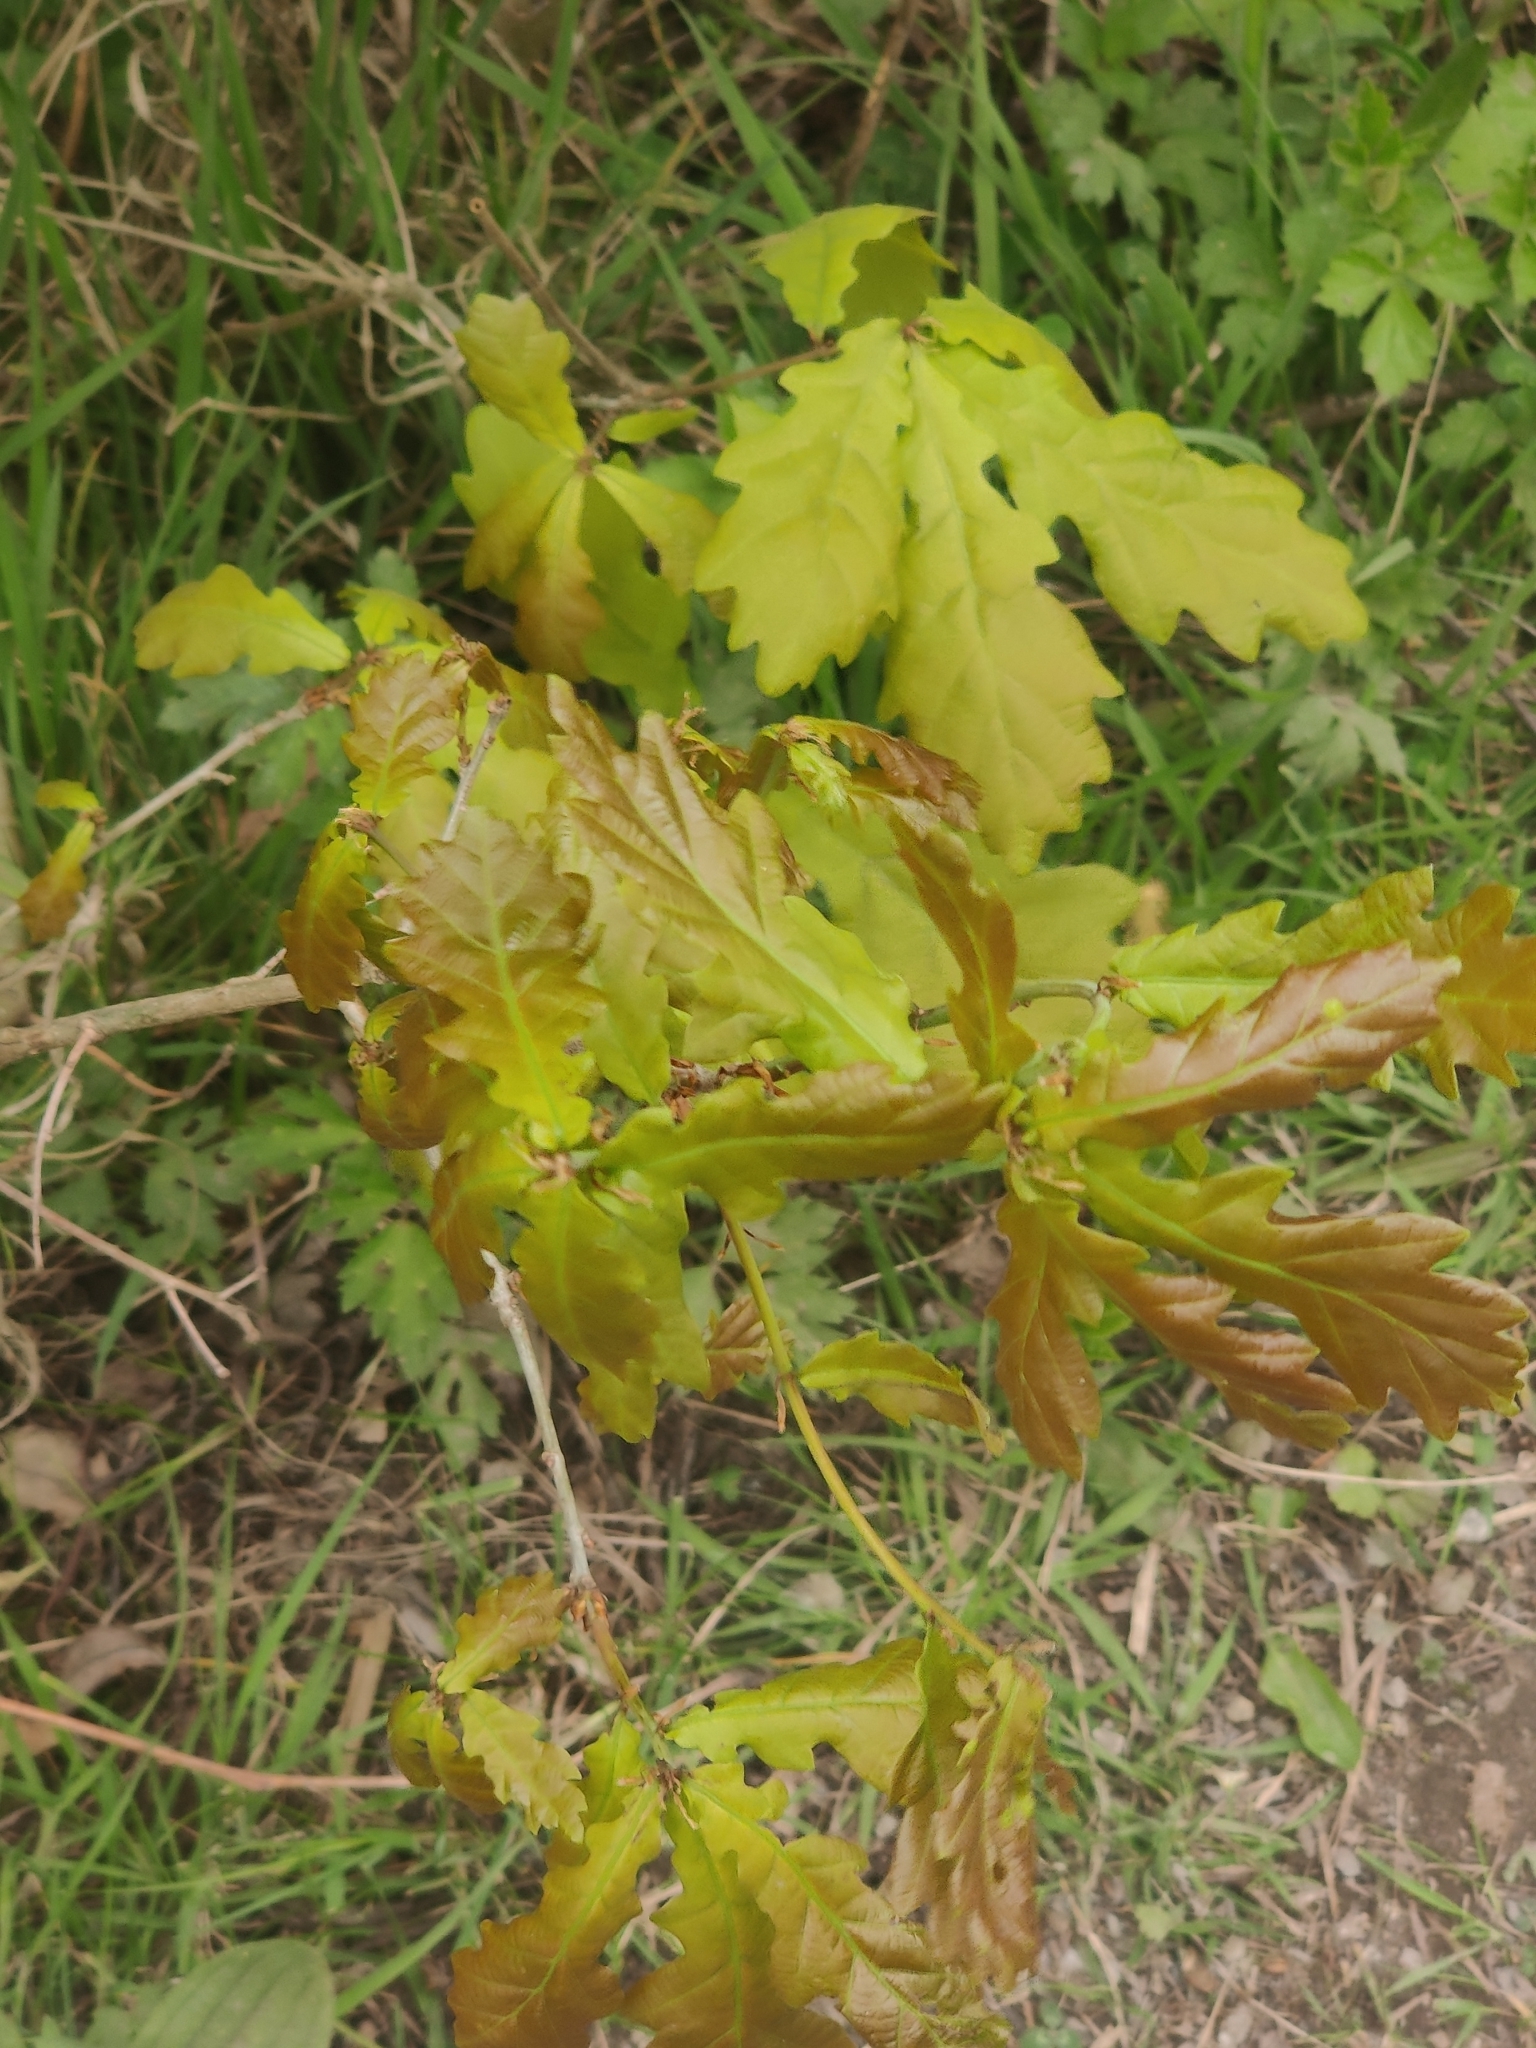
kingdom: Plantae
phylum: Tracheophyta
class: Magnoliopsida
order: Fagales
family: Fagaceae
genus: Quercus
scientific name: Quercus robur
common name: Pedunculate oak
